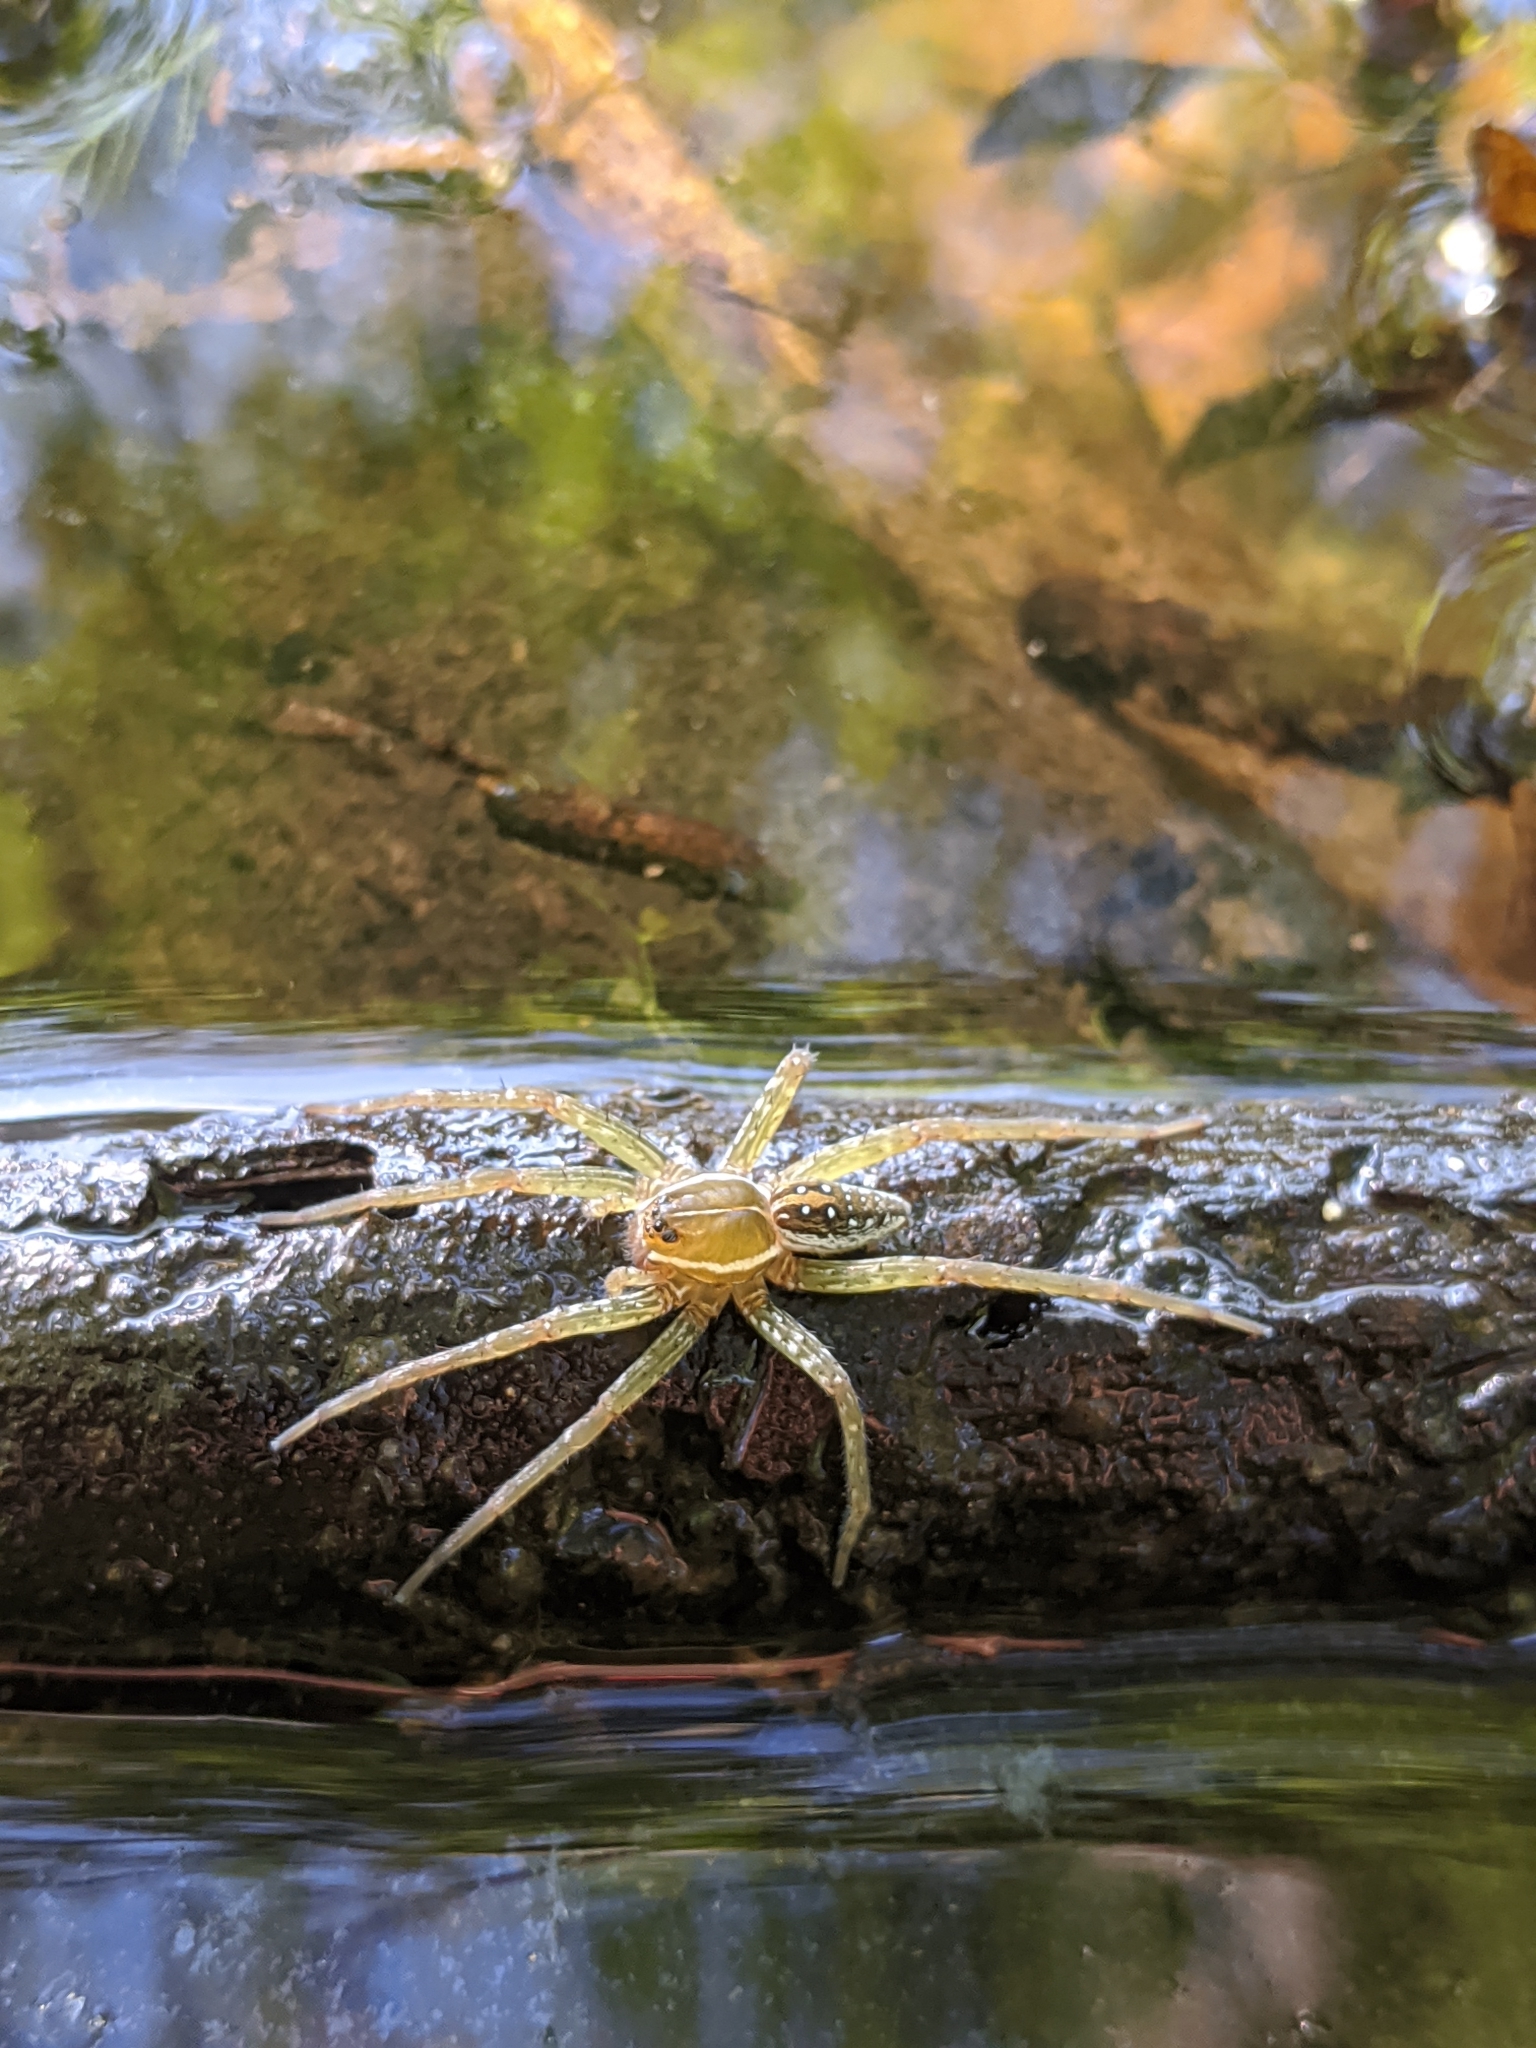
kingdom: Animalia
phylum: Arthropoda
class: Arachnida
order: Araneae
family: Pisauridae
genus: Dolomedes
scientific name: Dolomedes triton
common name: Six-spotted fishing spider
